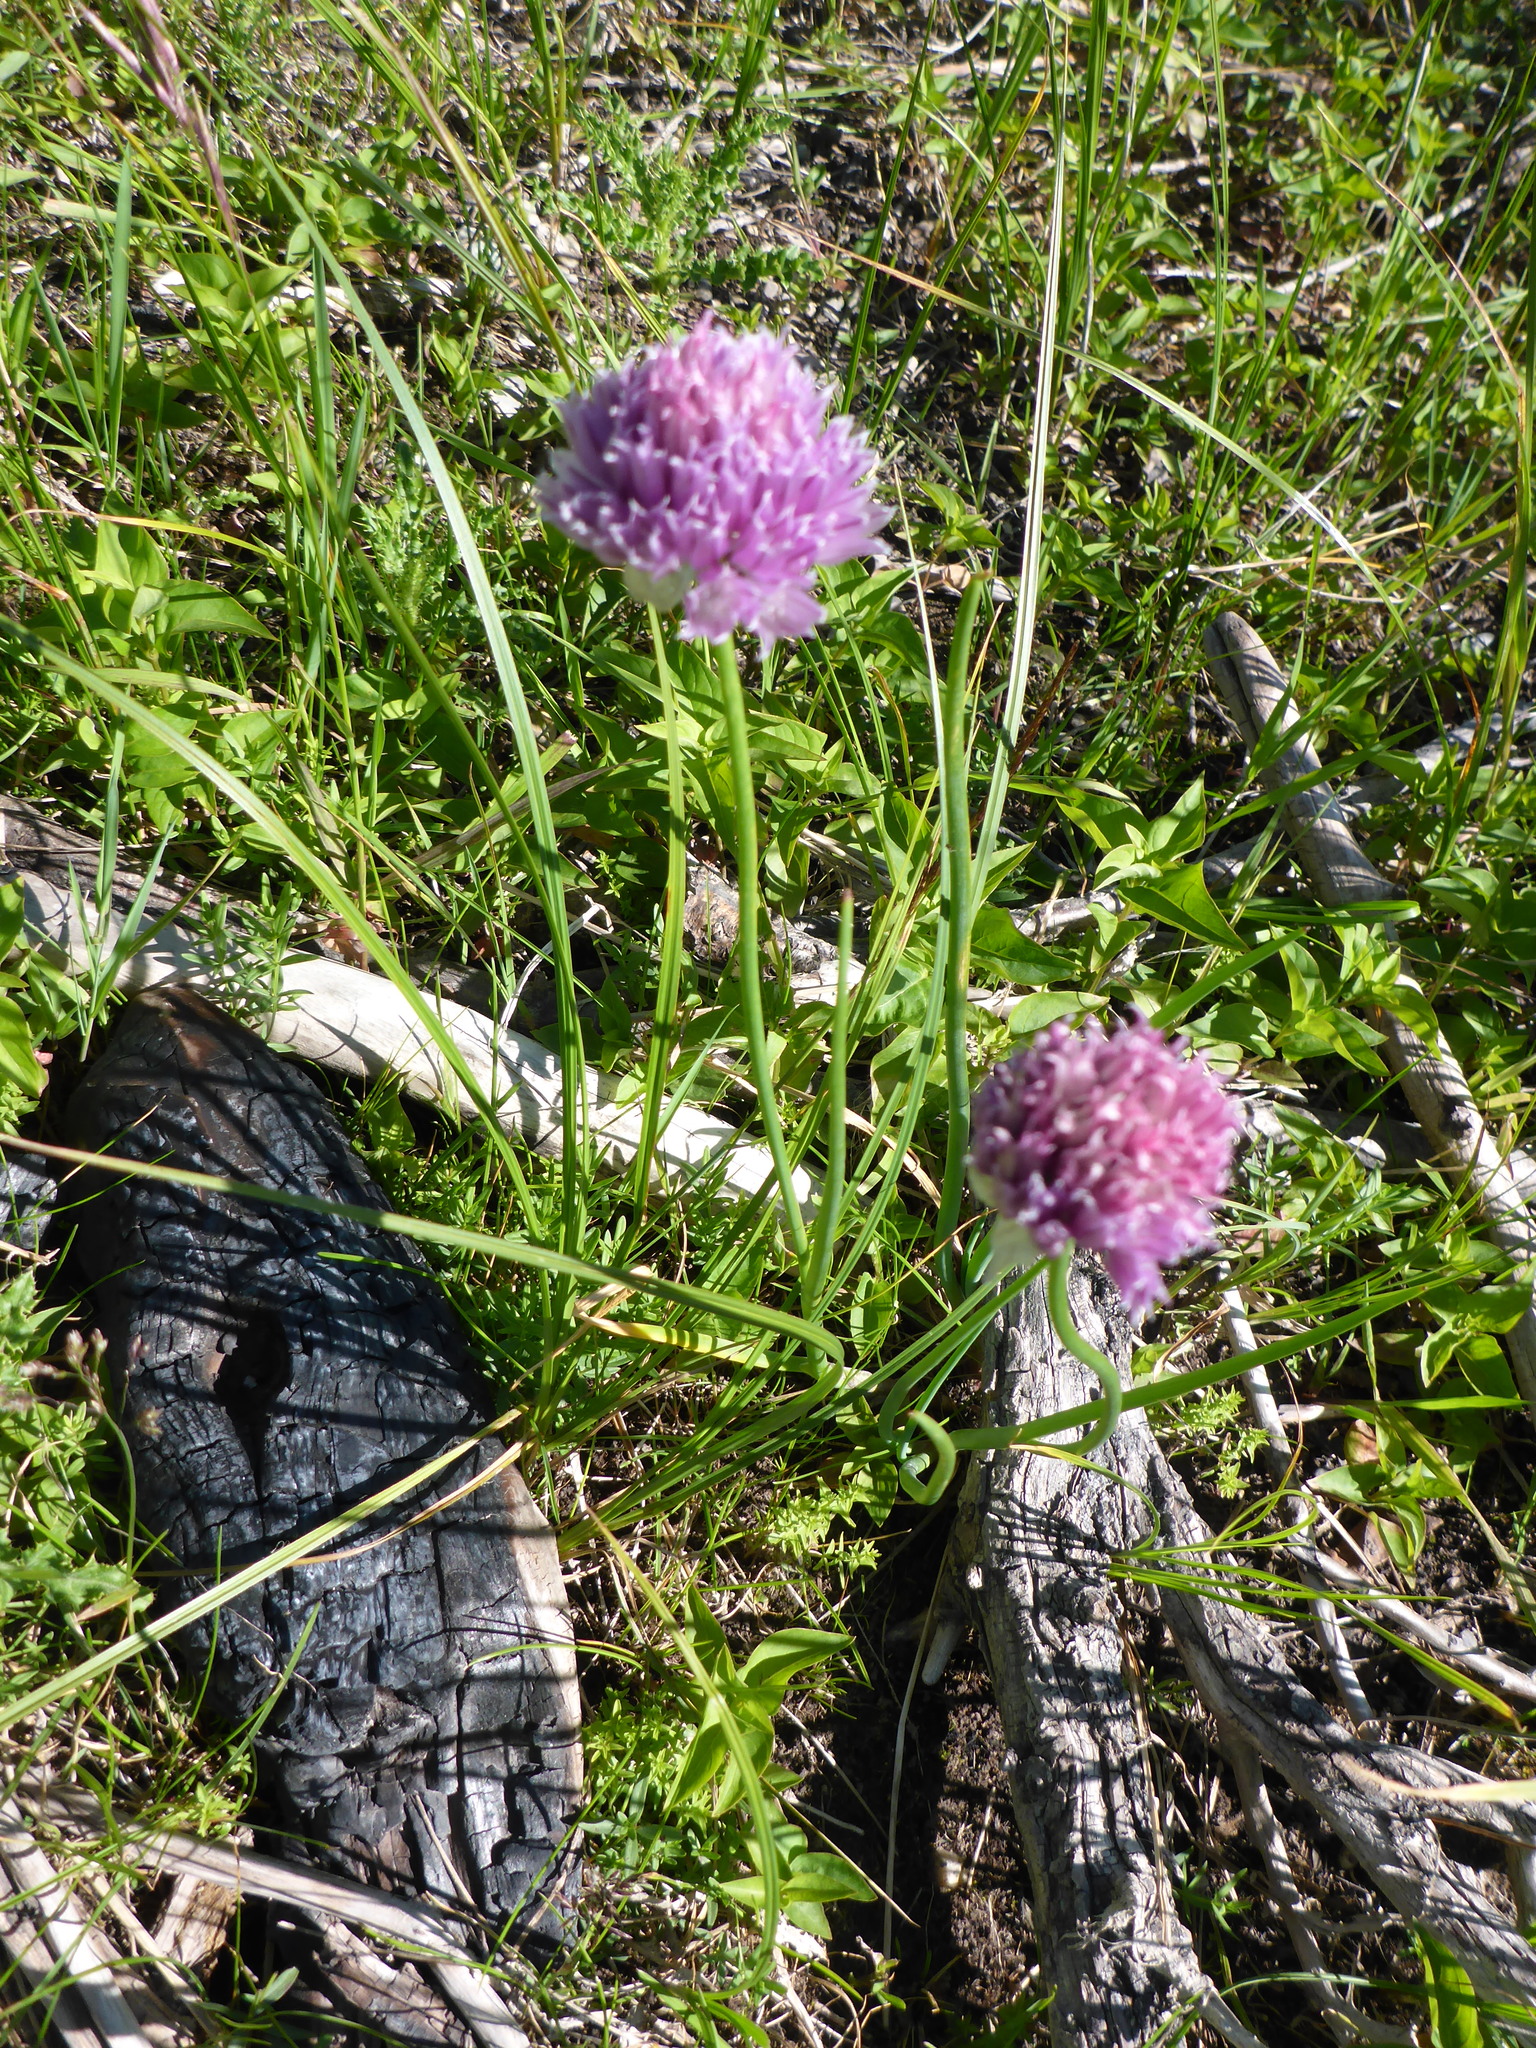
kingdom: Plantae
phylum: Tracheophyta
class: Liliopsida
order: Asparagales
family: Amaryllidaceae
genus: Allium
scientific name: Allium schoenoprasum
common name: Chives
